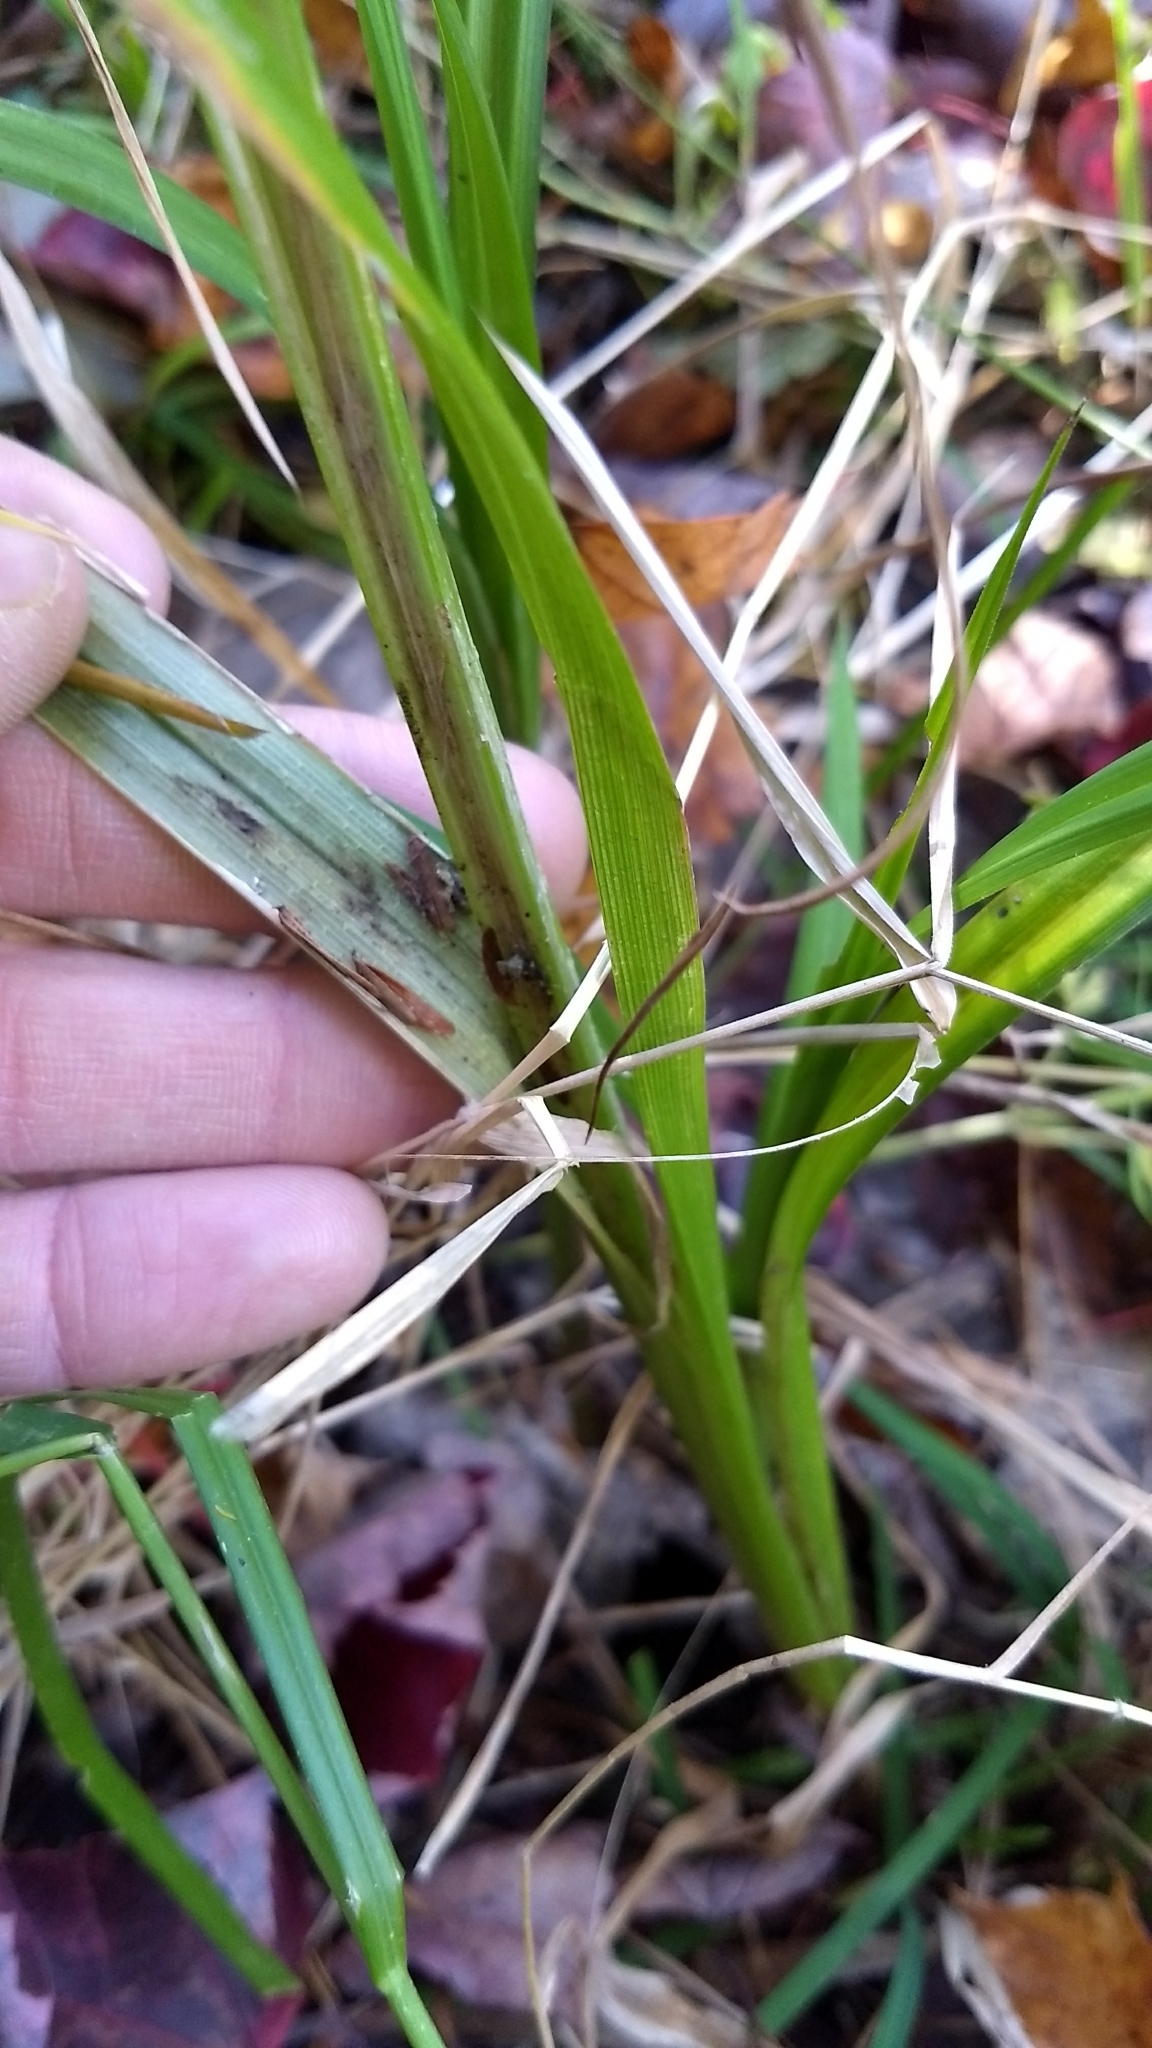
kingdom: Plantae
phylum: Tracheophyta
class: Liliopsida
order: Poales
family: Cyperaceae
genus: Carex
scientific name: Carex lupulina
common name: Hop sedge
